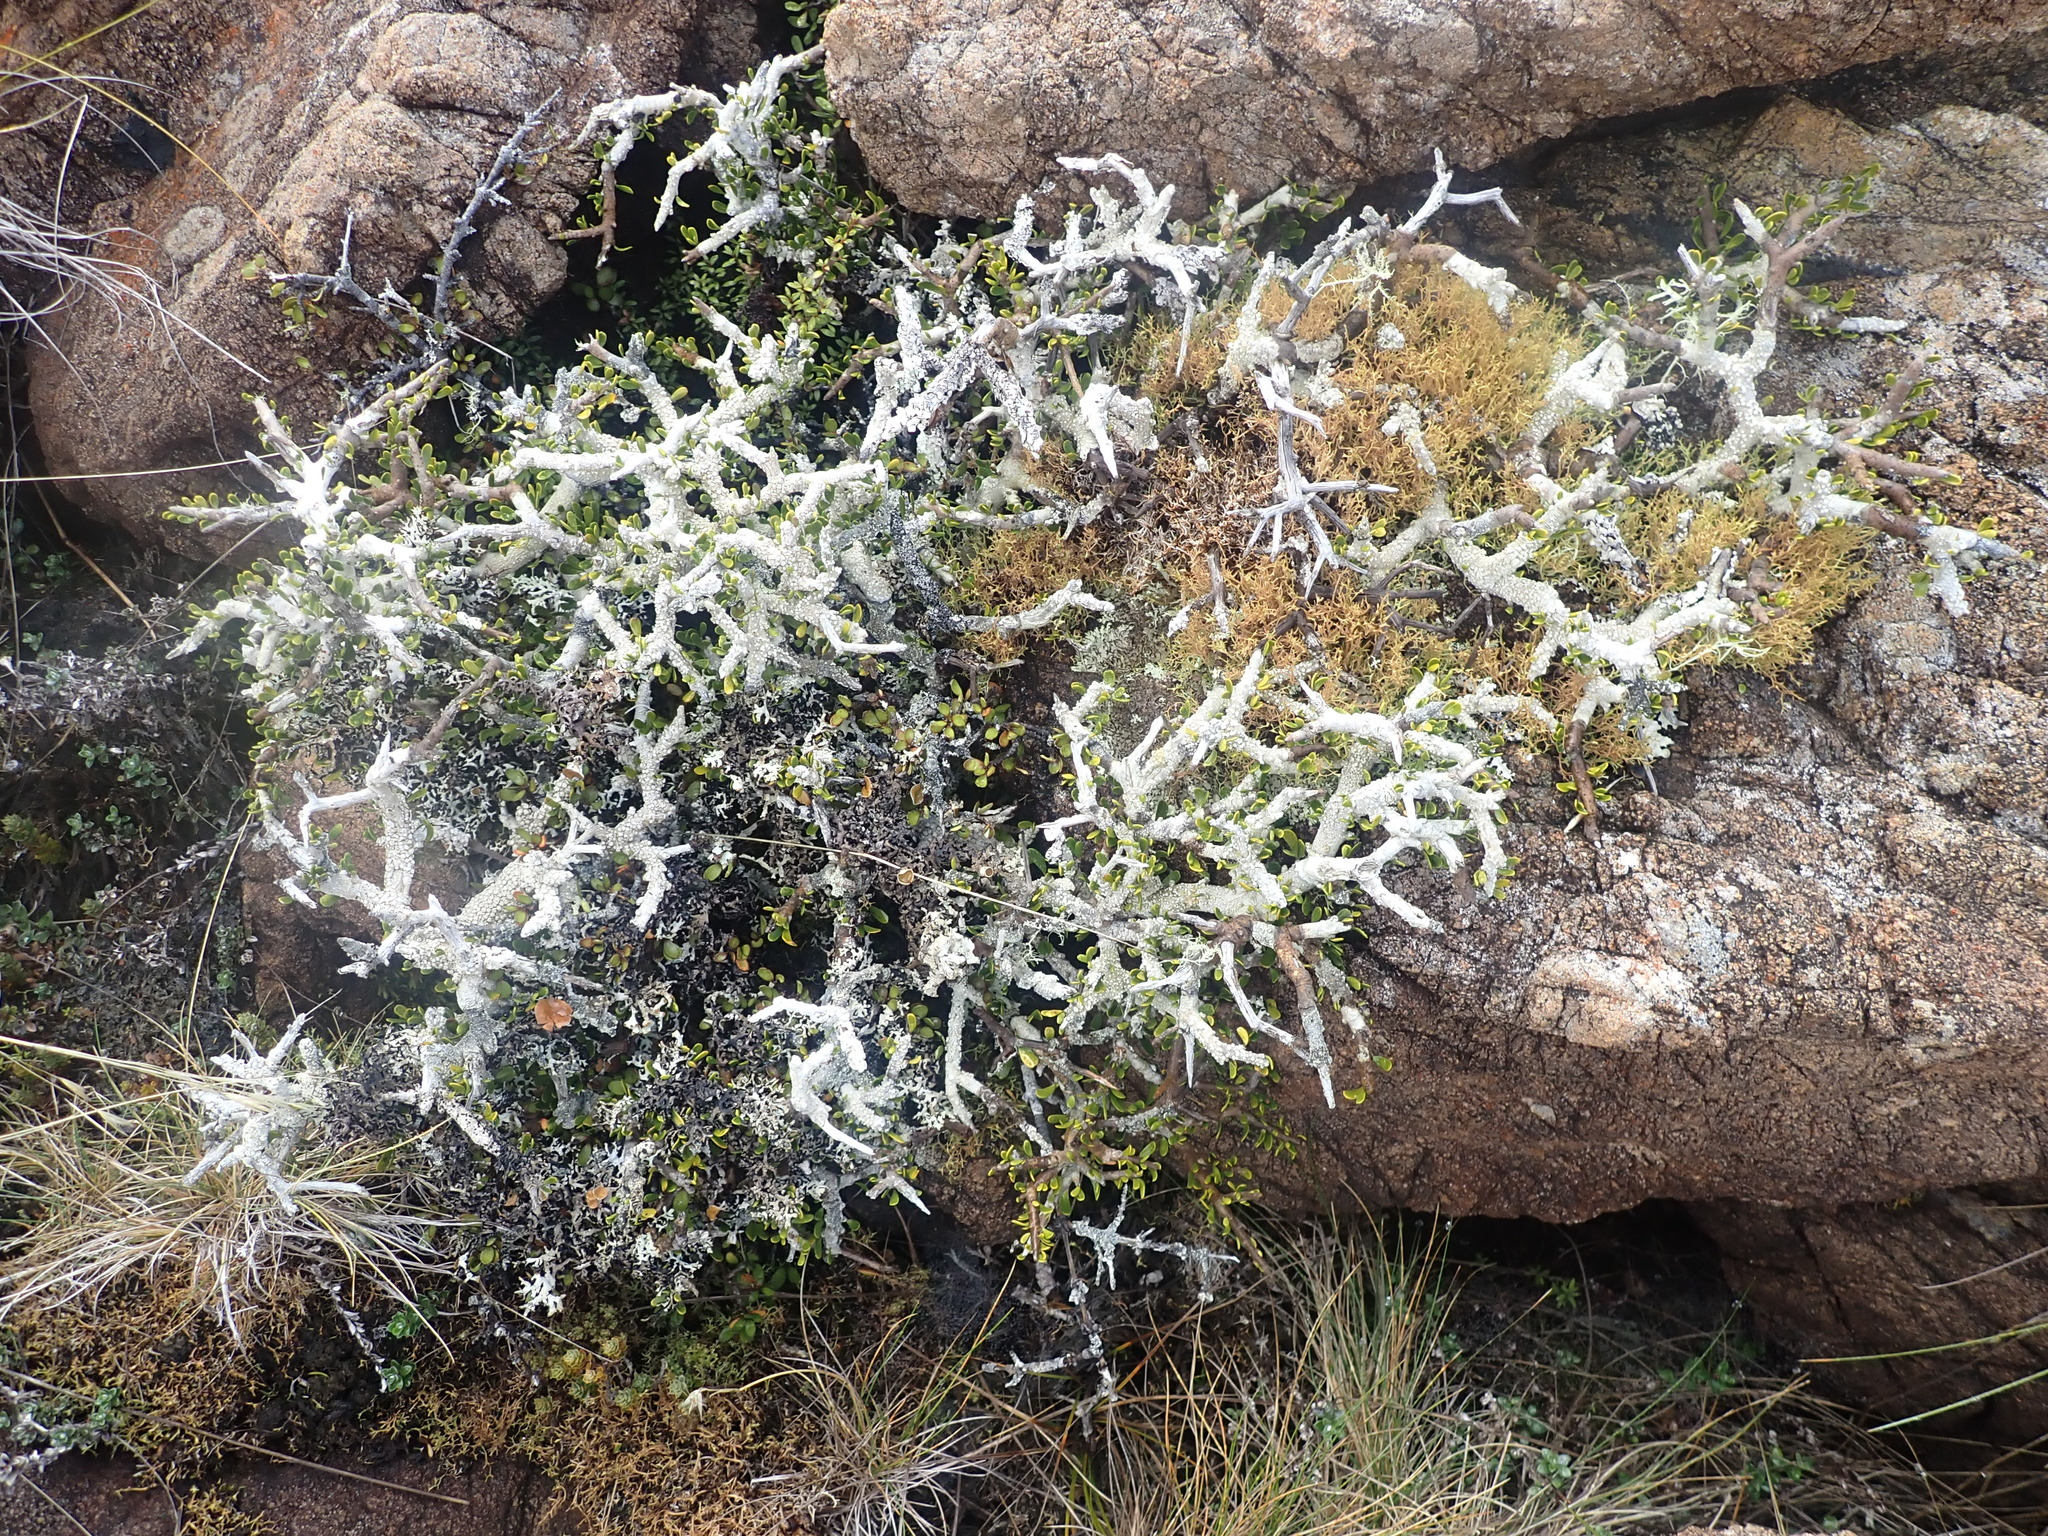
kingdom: Plantae
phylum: Tracheophyta
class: Magnoliopsida
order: Malpighiales
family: Violaceae
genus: Melicytus
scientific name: Melicytus alpinus
